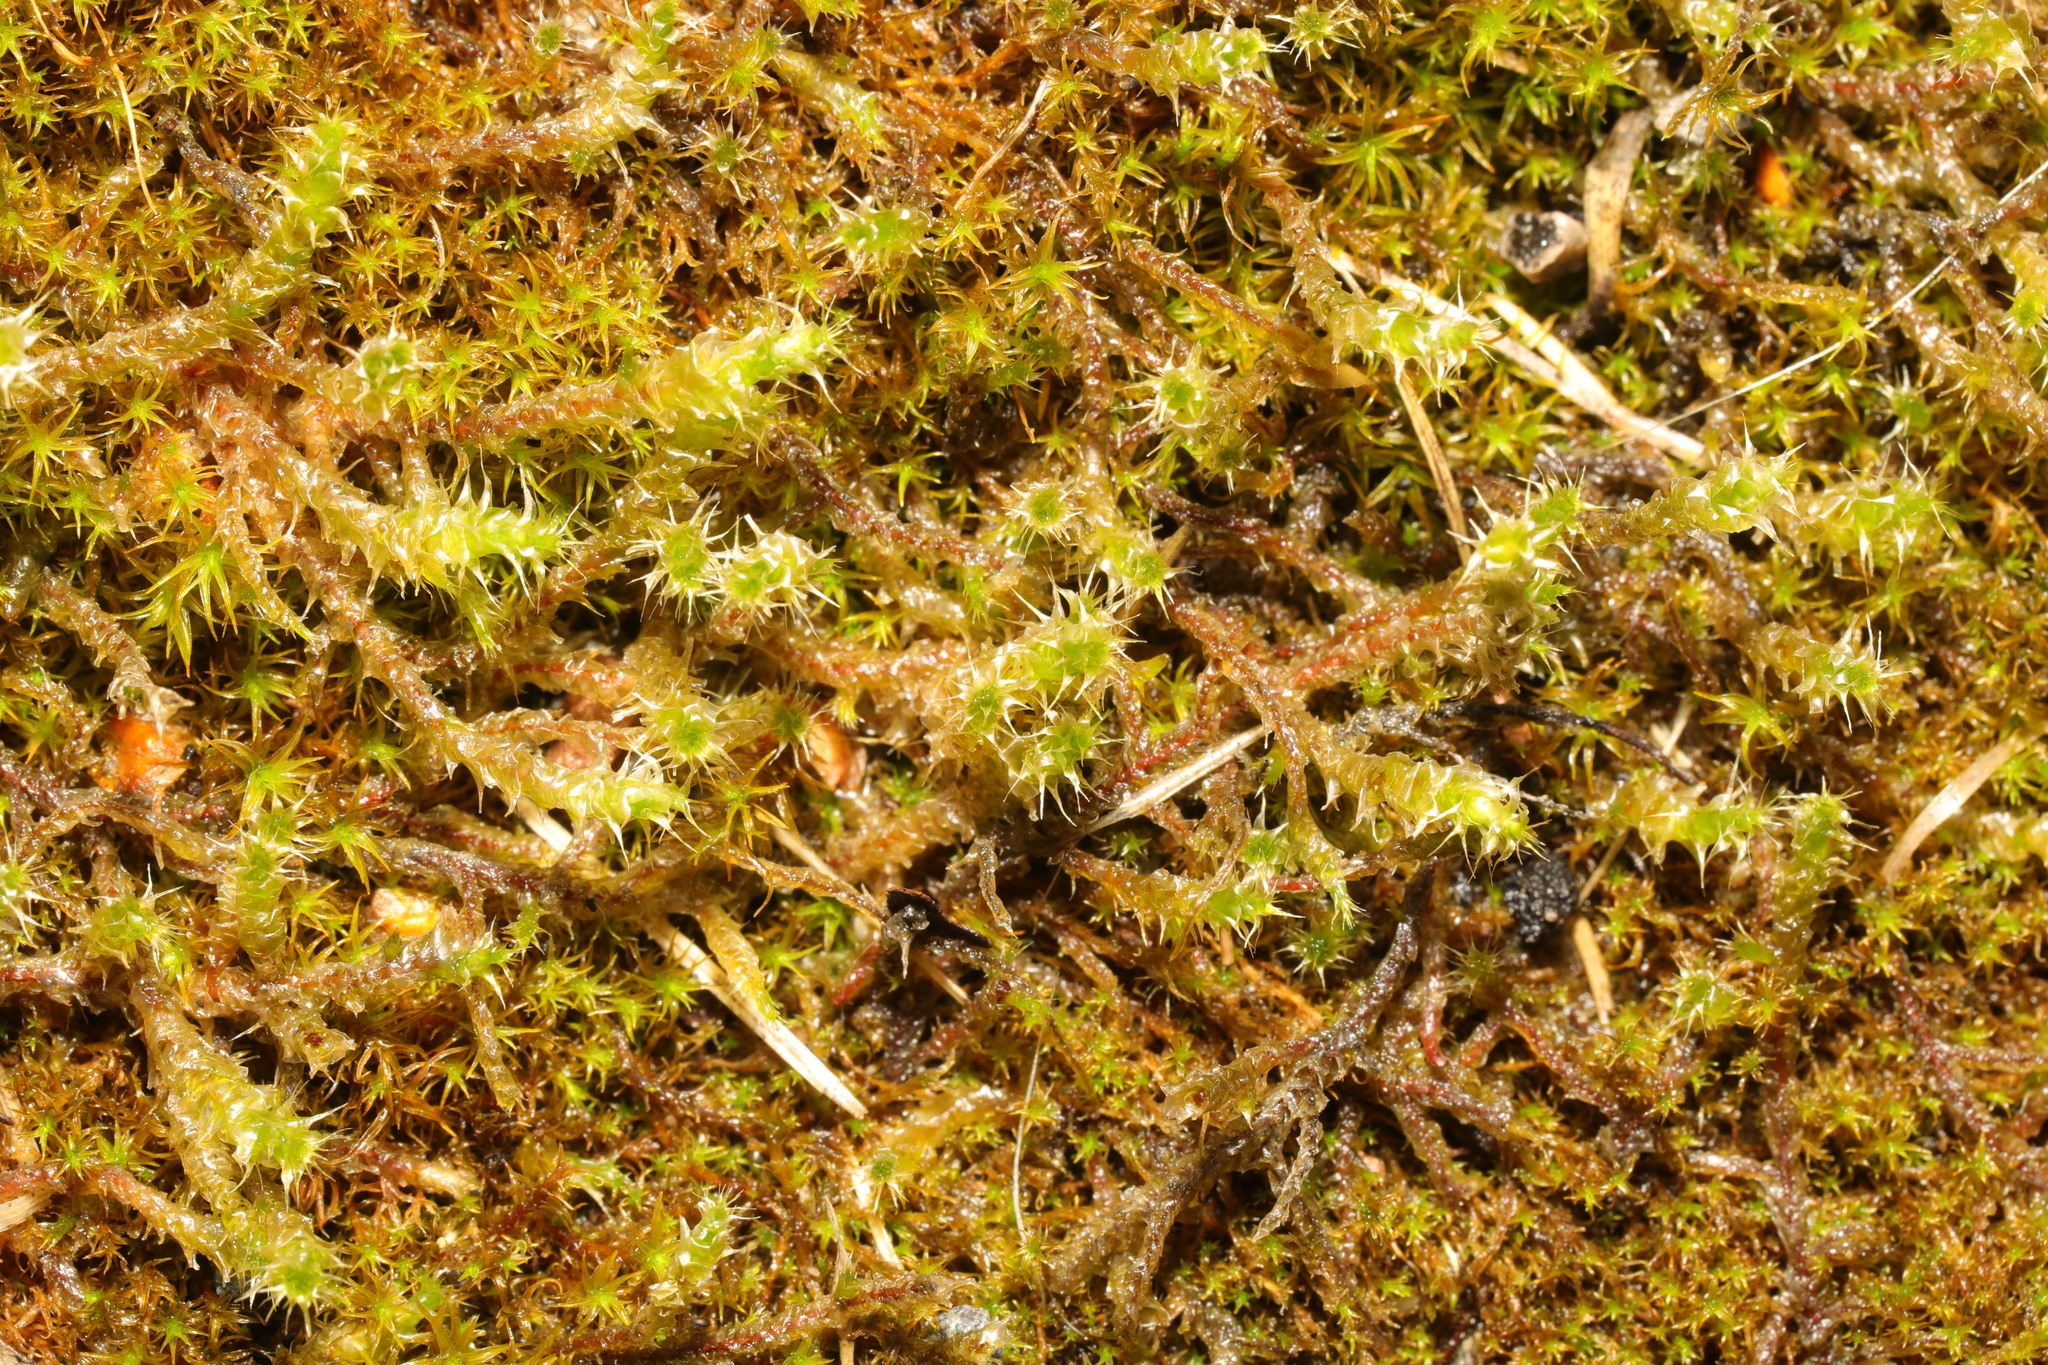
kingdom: Plantae
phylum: Bryophyta
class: Bryopsida
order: Hypnales
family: Hylocomiaceae
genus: Rhytidiadelphus
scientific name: Rhytidiadelphus squarrosus
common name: Springy turf-moss
